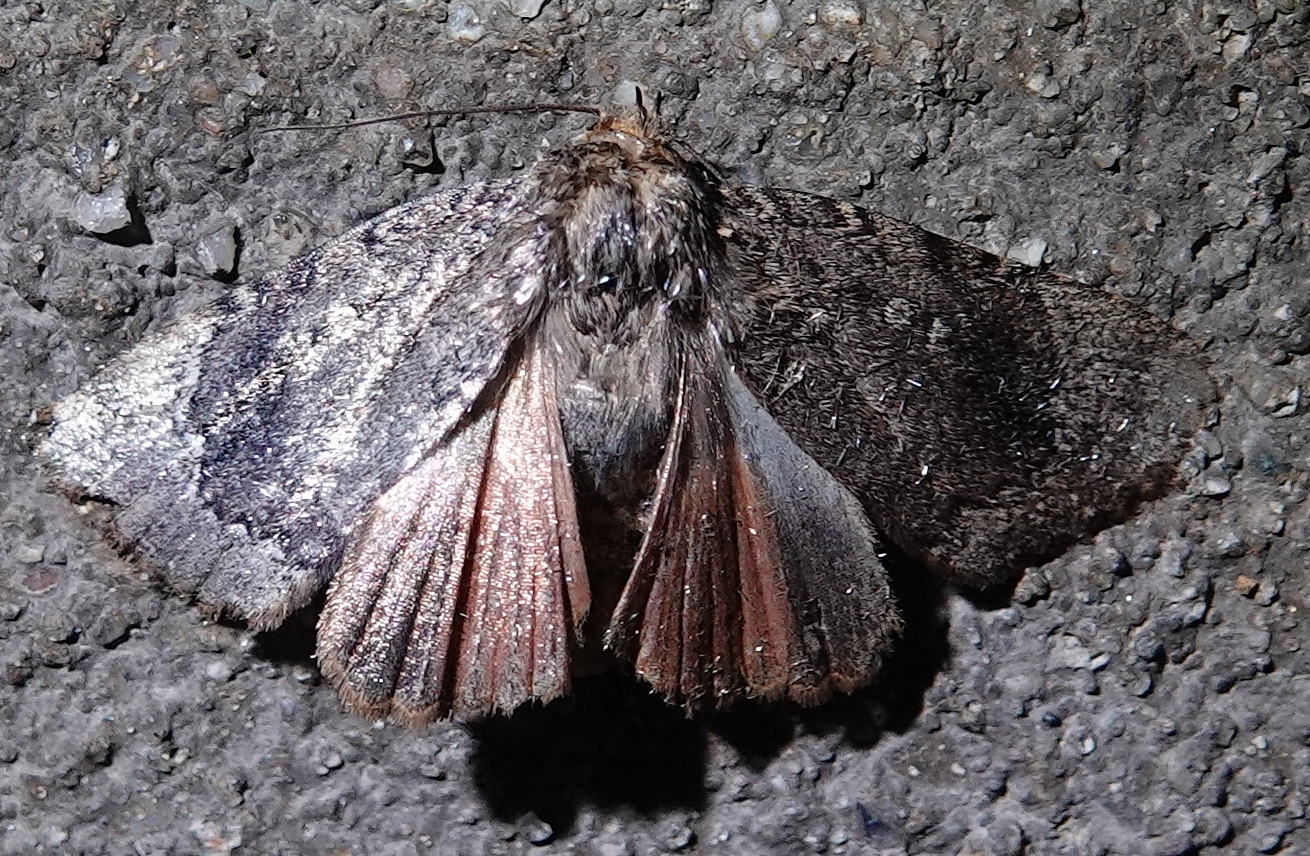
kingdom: Animalia
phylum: Arthropoda
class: Insecta
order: Lepidoptera
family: Noctuidae
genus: Amphipyra
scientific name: Amphipyra pyramidoides
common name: American copper underwing
